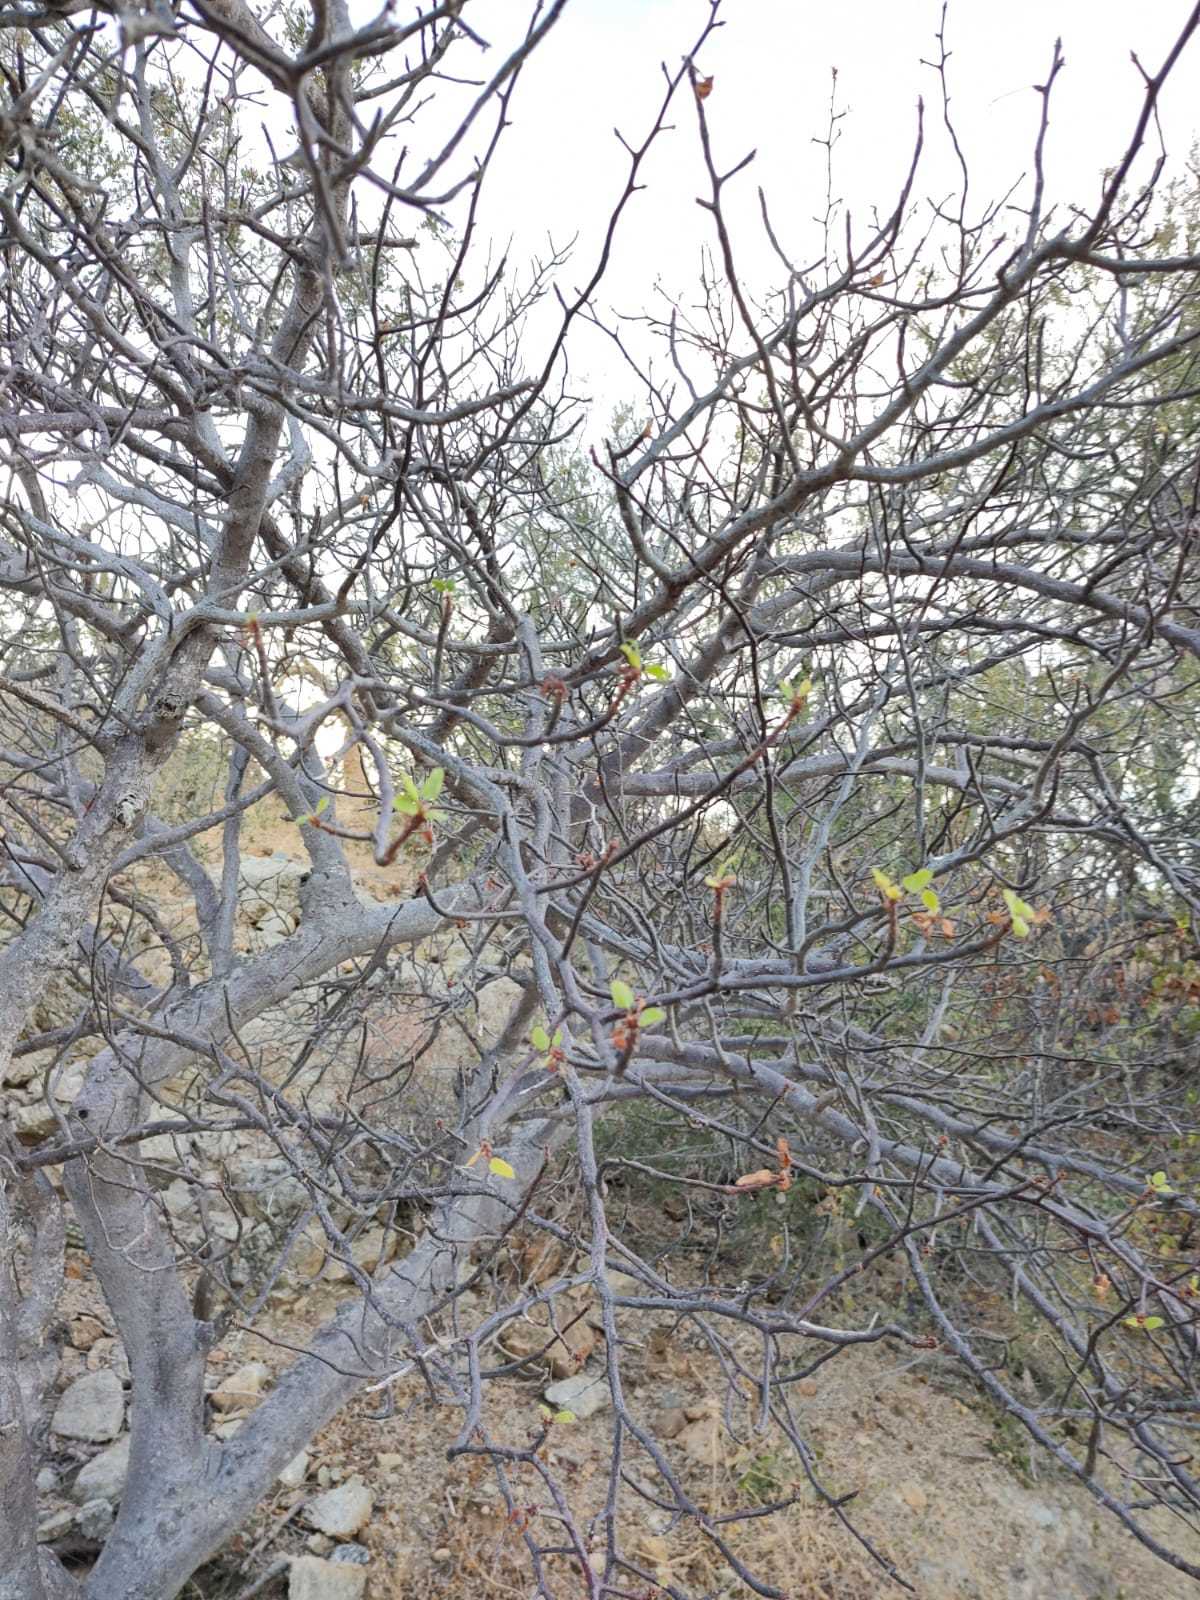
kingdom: Plantae
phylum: Tracheophyta
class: Magnoliopsida
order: Sapindales
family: Burseraceae
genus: Bursera
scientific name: Bursera epinnata
